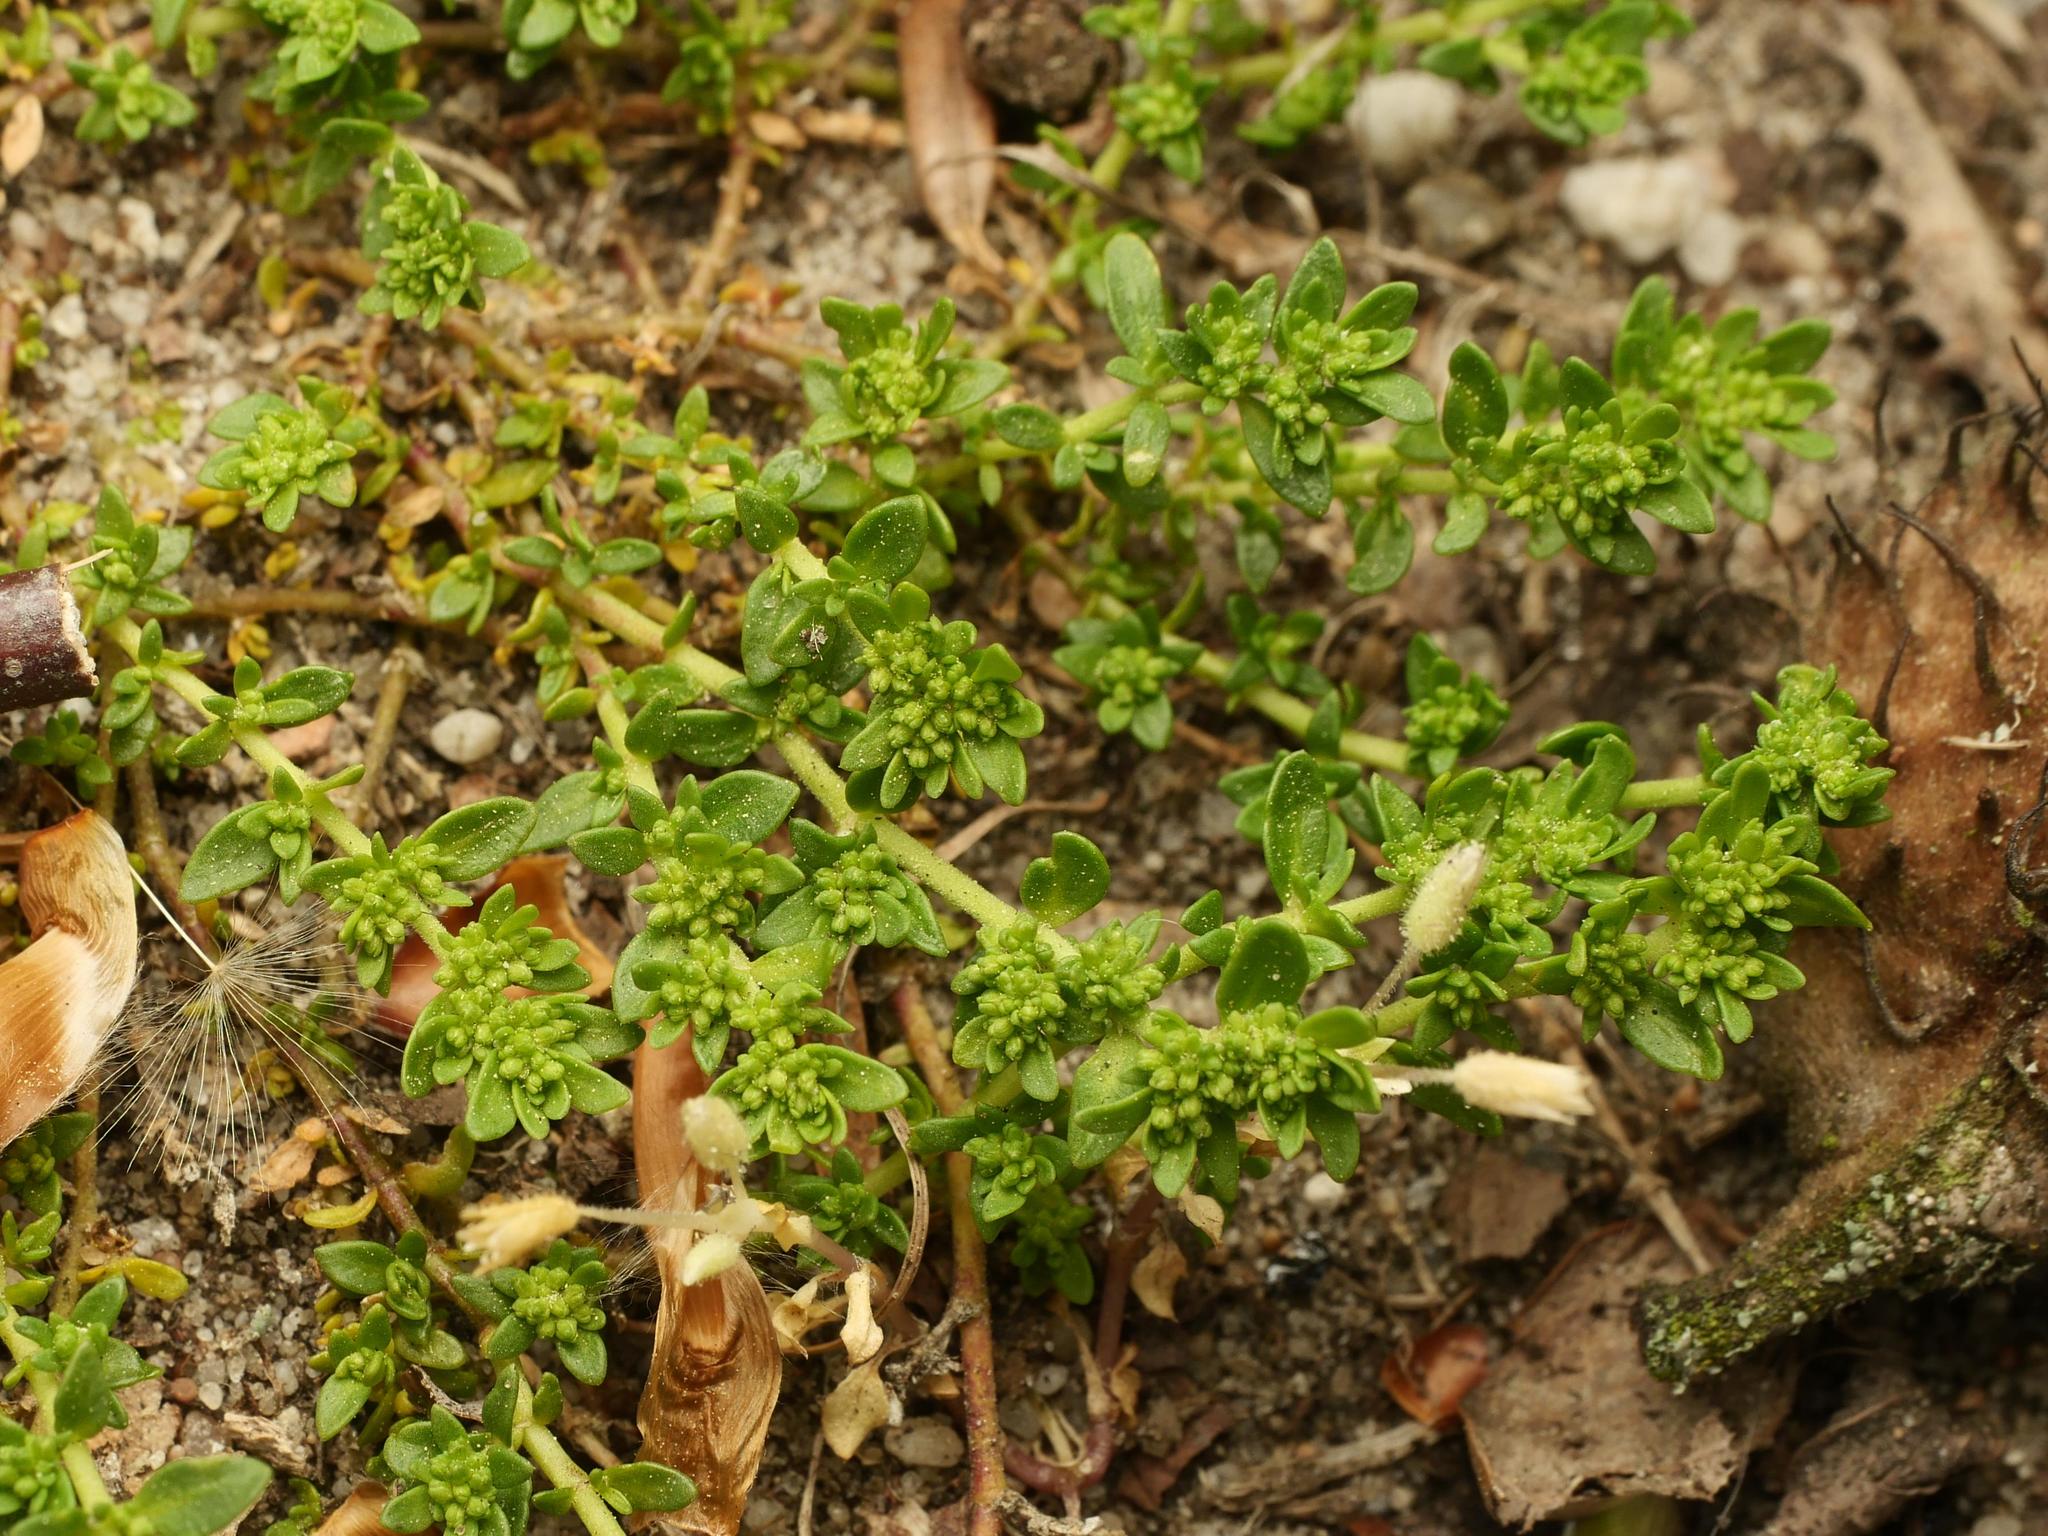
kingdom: Plantae
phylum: Tracheophyta
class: Magnoliopsida
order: Caryophyllales
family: Caryophyllaceae
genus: Herniaria
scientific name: Herniaria glabra
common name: Smooth rupturewort
